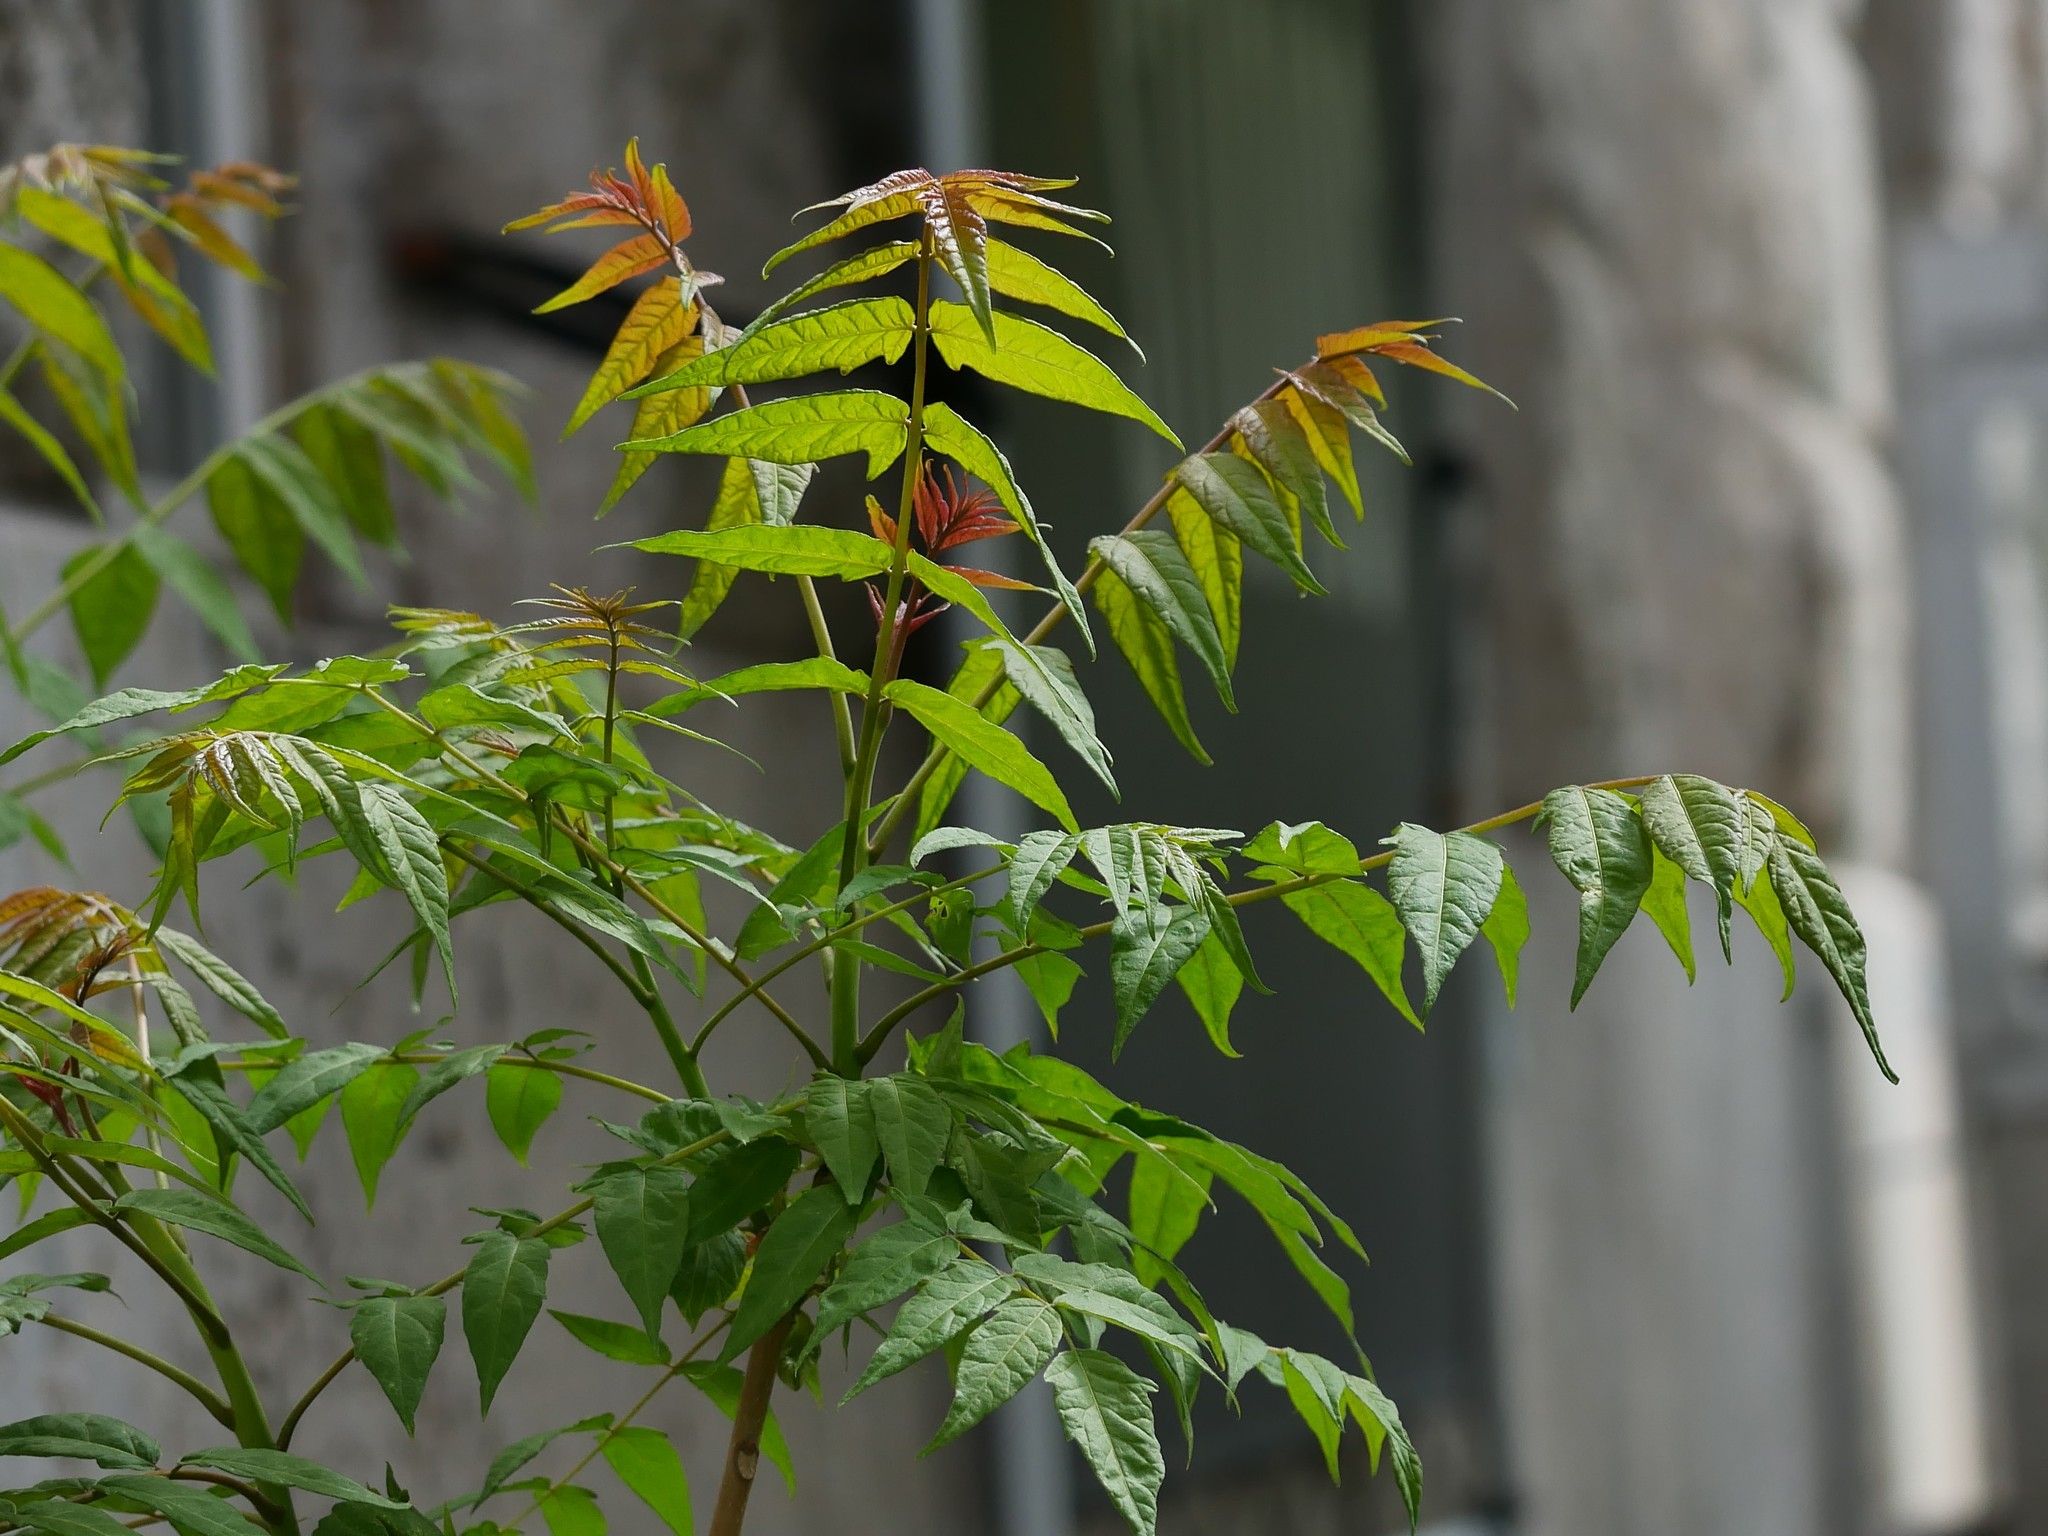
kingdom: Plantae
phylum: Tracheophyta
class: Magnoliopsida
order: Sapindales
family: Simaroubaceae
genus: Ailanthus
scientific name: Ailanthus altissima
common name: Tree-of-heaven
